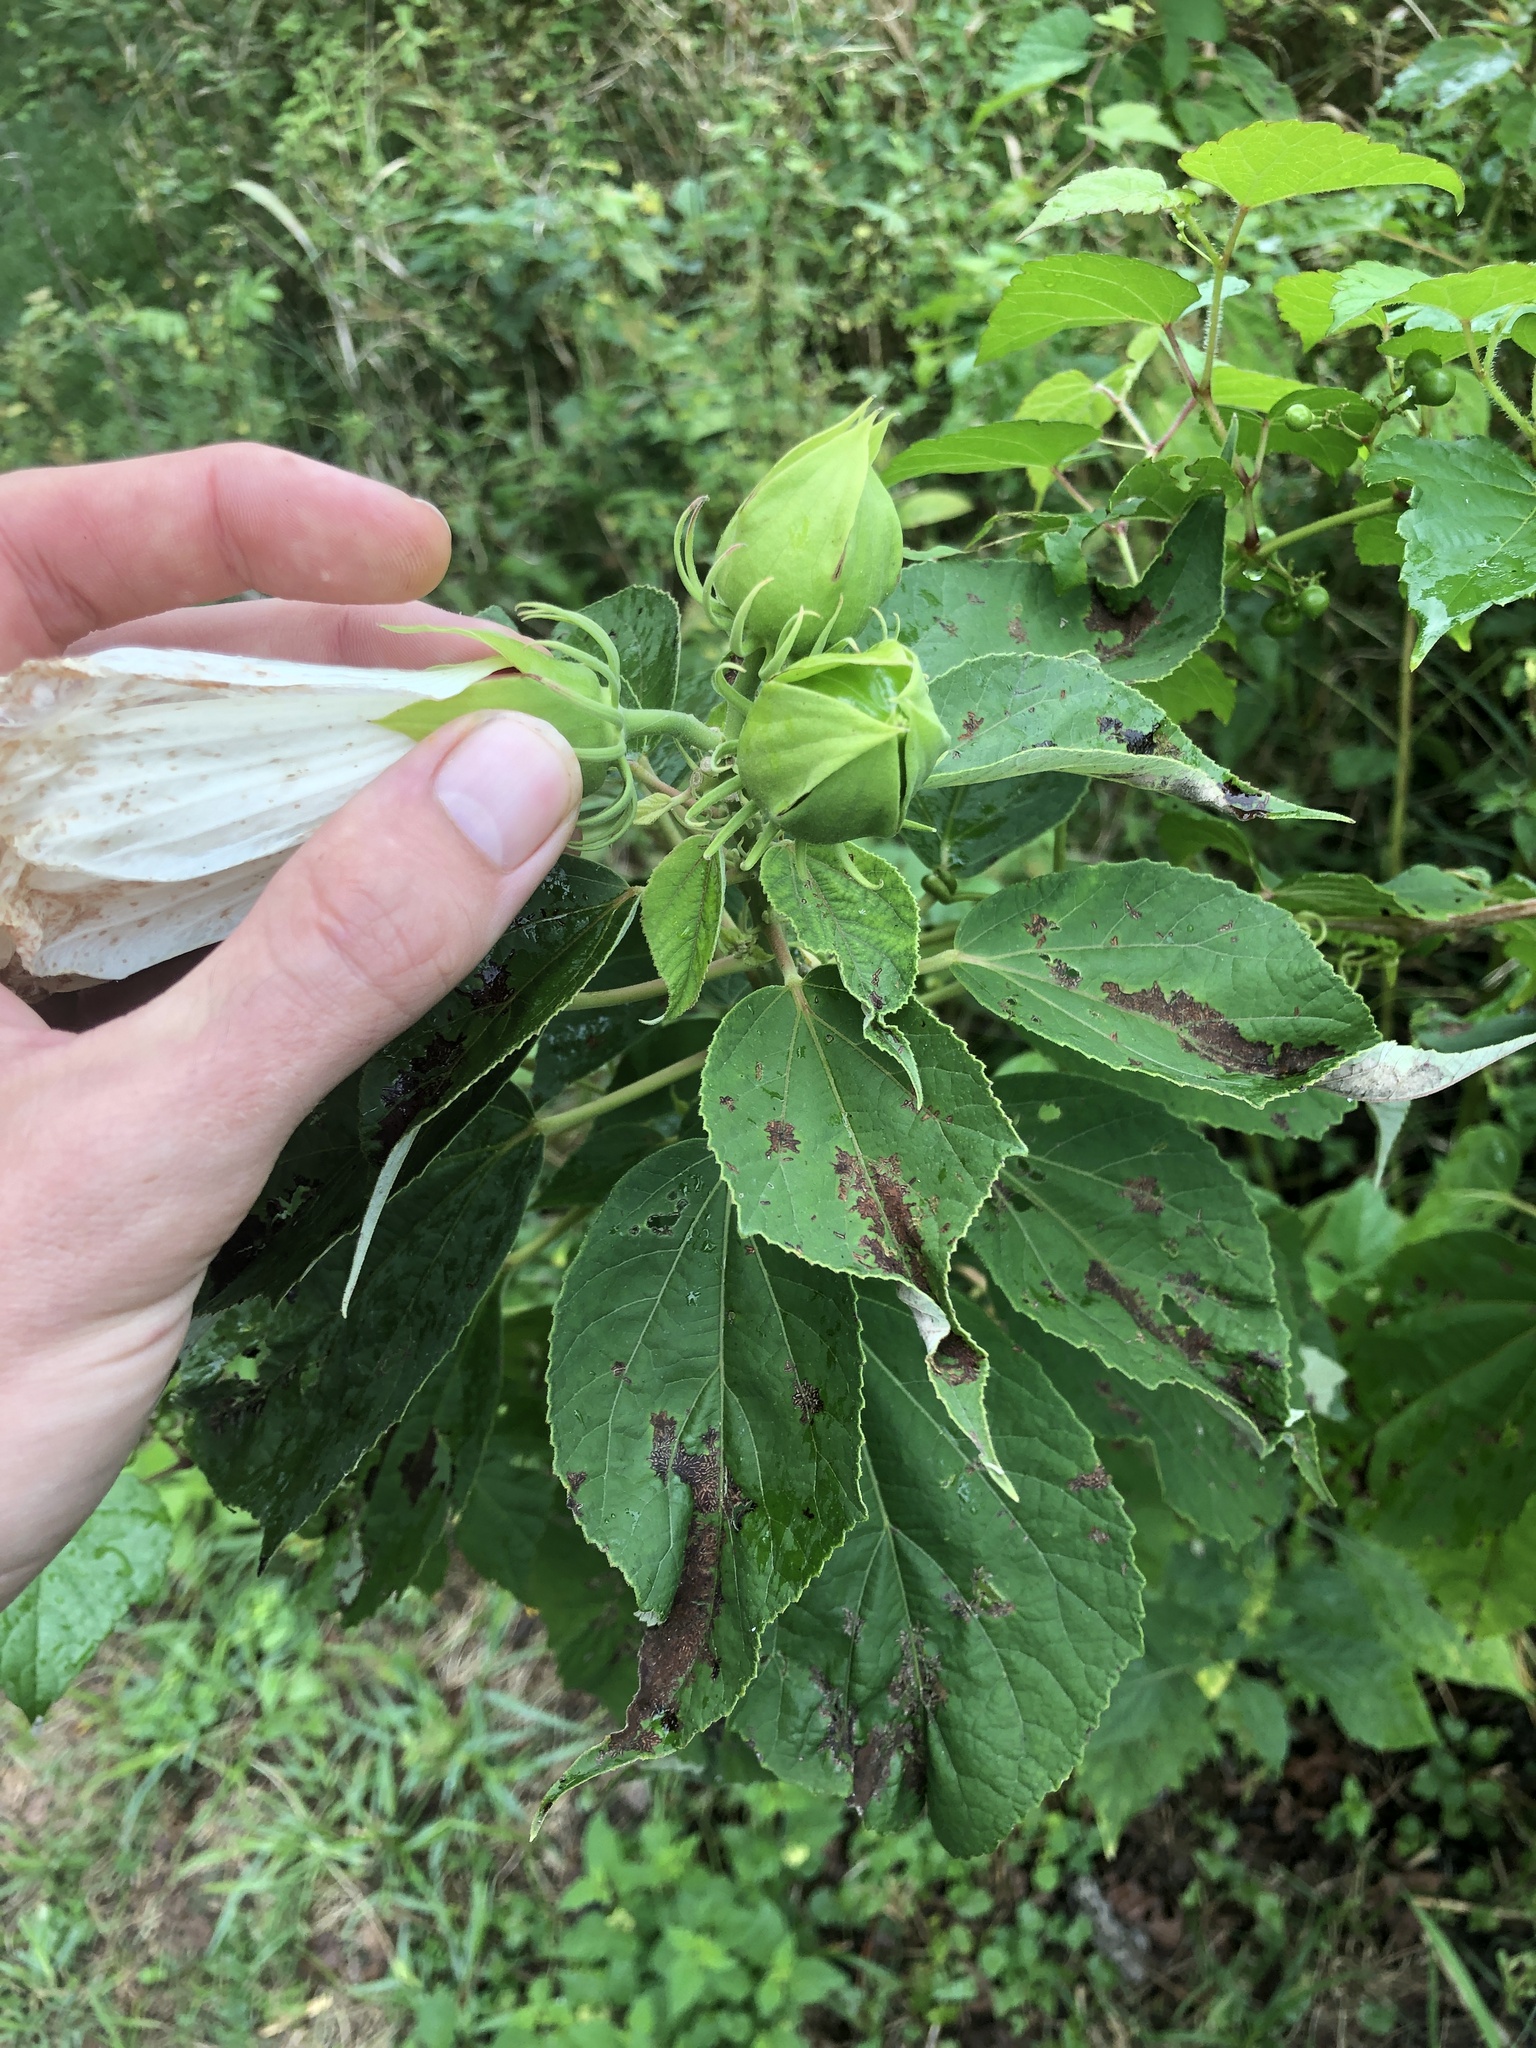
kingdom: Plantae
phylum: Tracheophyta
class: Magnoliopsida
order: Malvales
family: Malvaceae
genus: Hibiscus
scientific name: Hibiscus moscheutos
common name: Common rose-mallow
